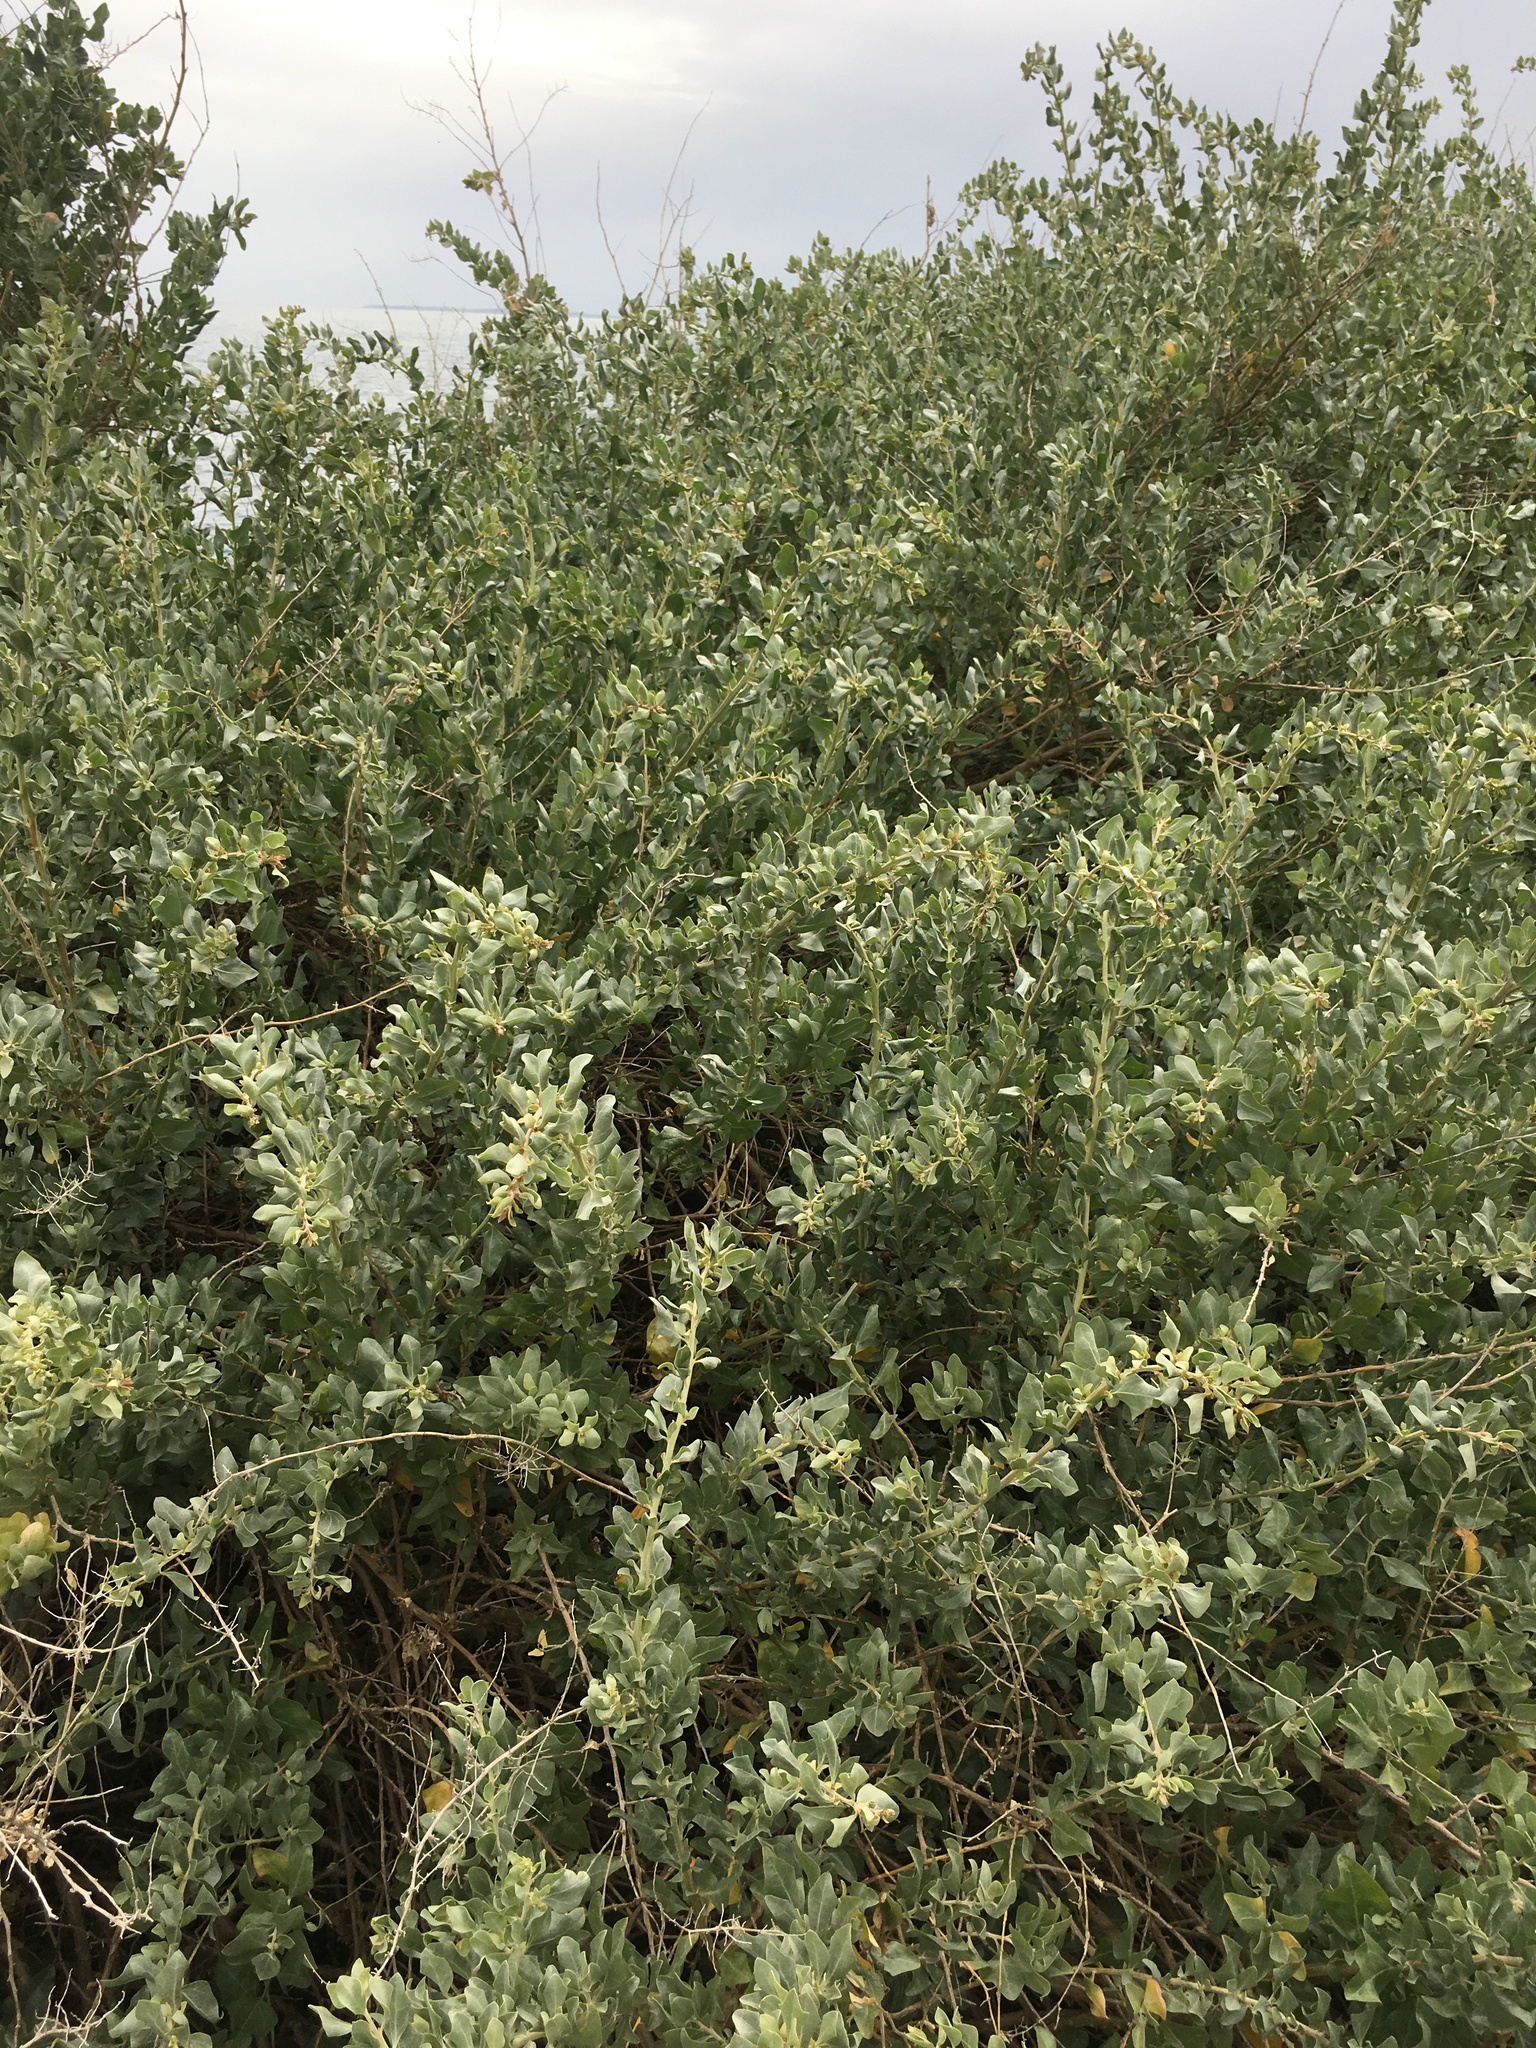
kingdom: Plantae
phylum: Tracheophyta
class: Magnoliopsida
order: Caryophyllales
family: Amaranthaceae
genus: Atriplex
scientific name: Atriplex halimus
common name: Shrubby orache
